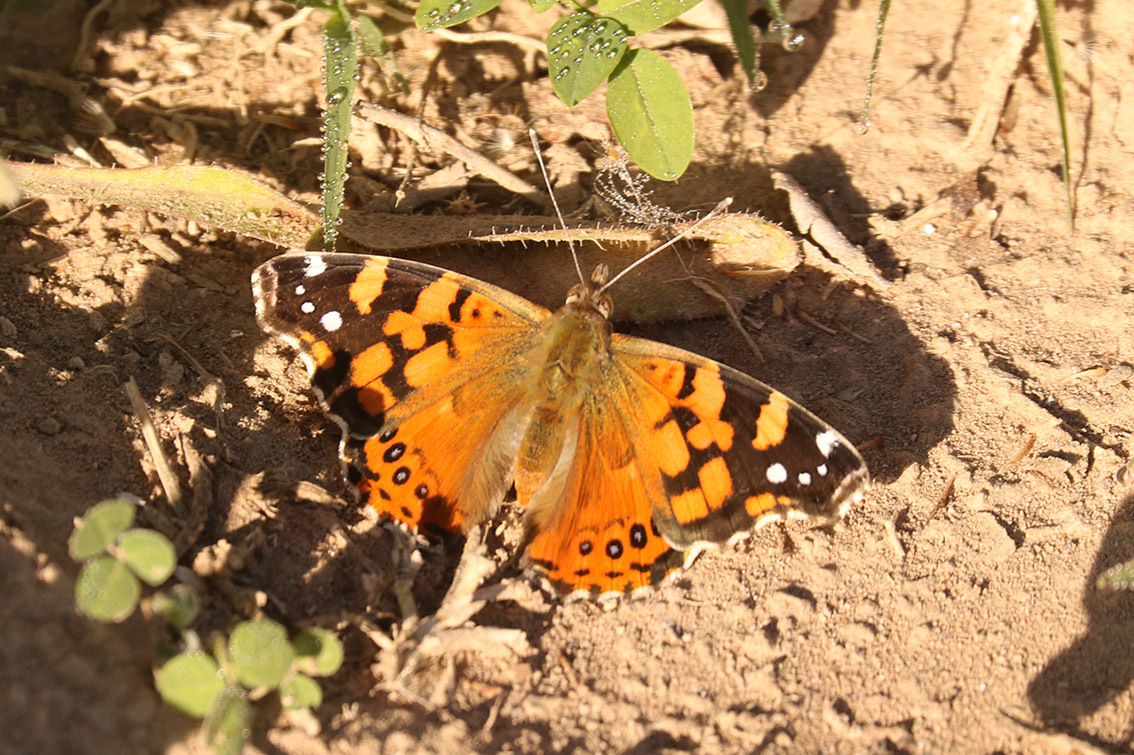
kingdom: Animalia
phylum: Arthropoda
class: Insecta
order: Lepidoptera
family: Nymphalidae
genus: Vanessa
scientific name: Vanessa carye
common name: Subtropical lady
